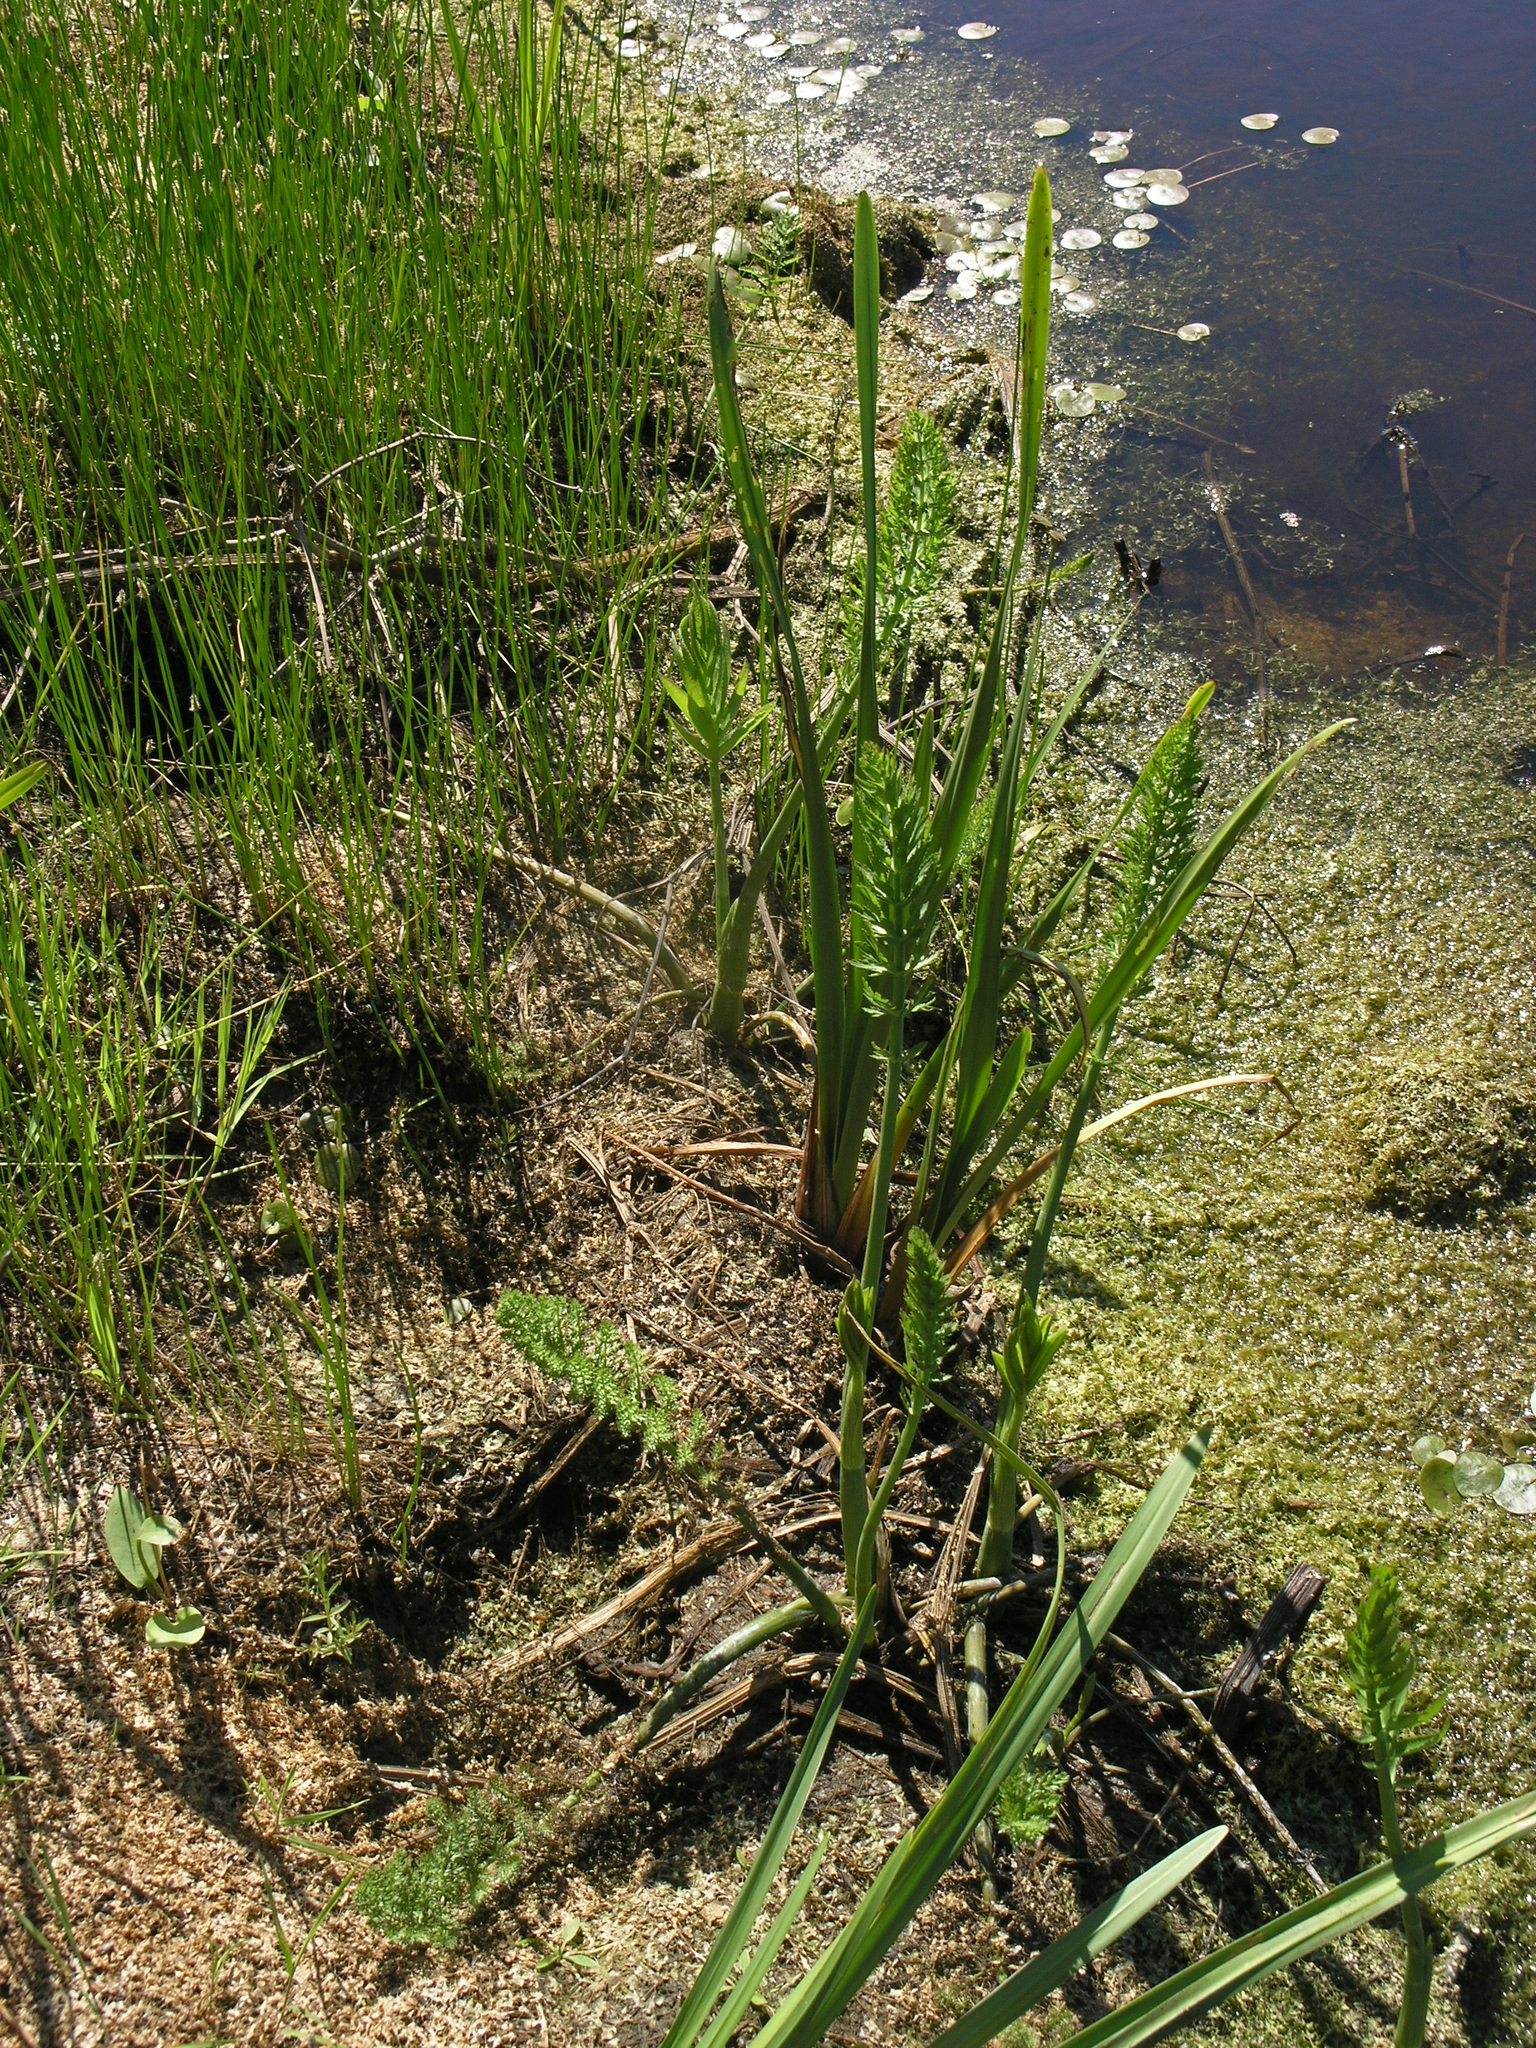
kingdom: Plantae
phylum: Tracheophyta
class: Magnoliopsida
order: Apiales
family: Apiaceae
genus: Cicuta
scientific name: Cicuta virosa
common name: Cowbane
